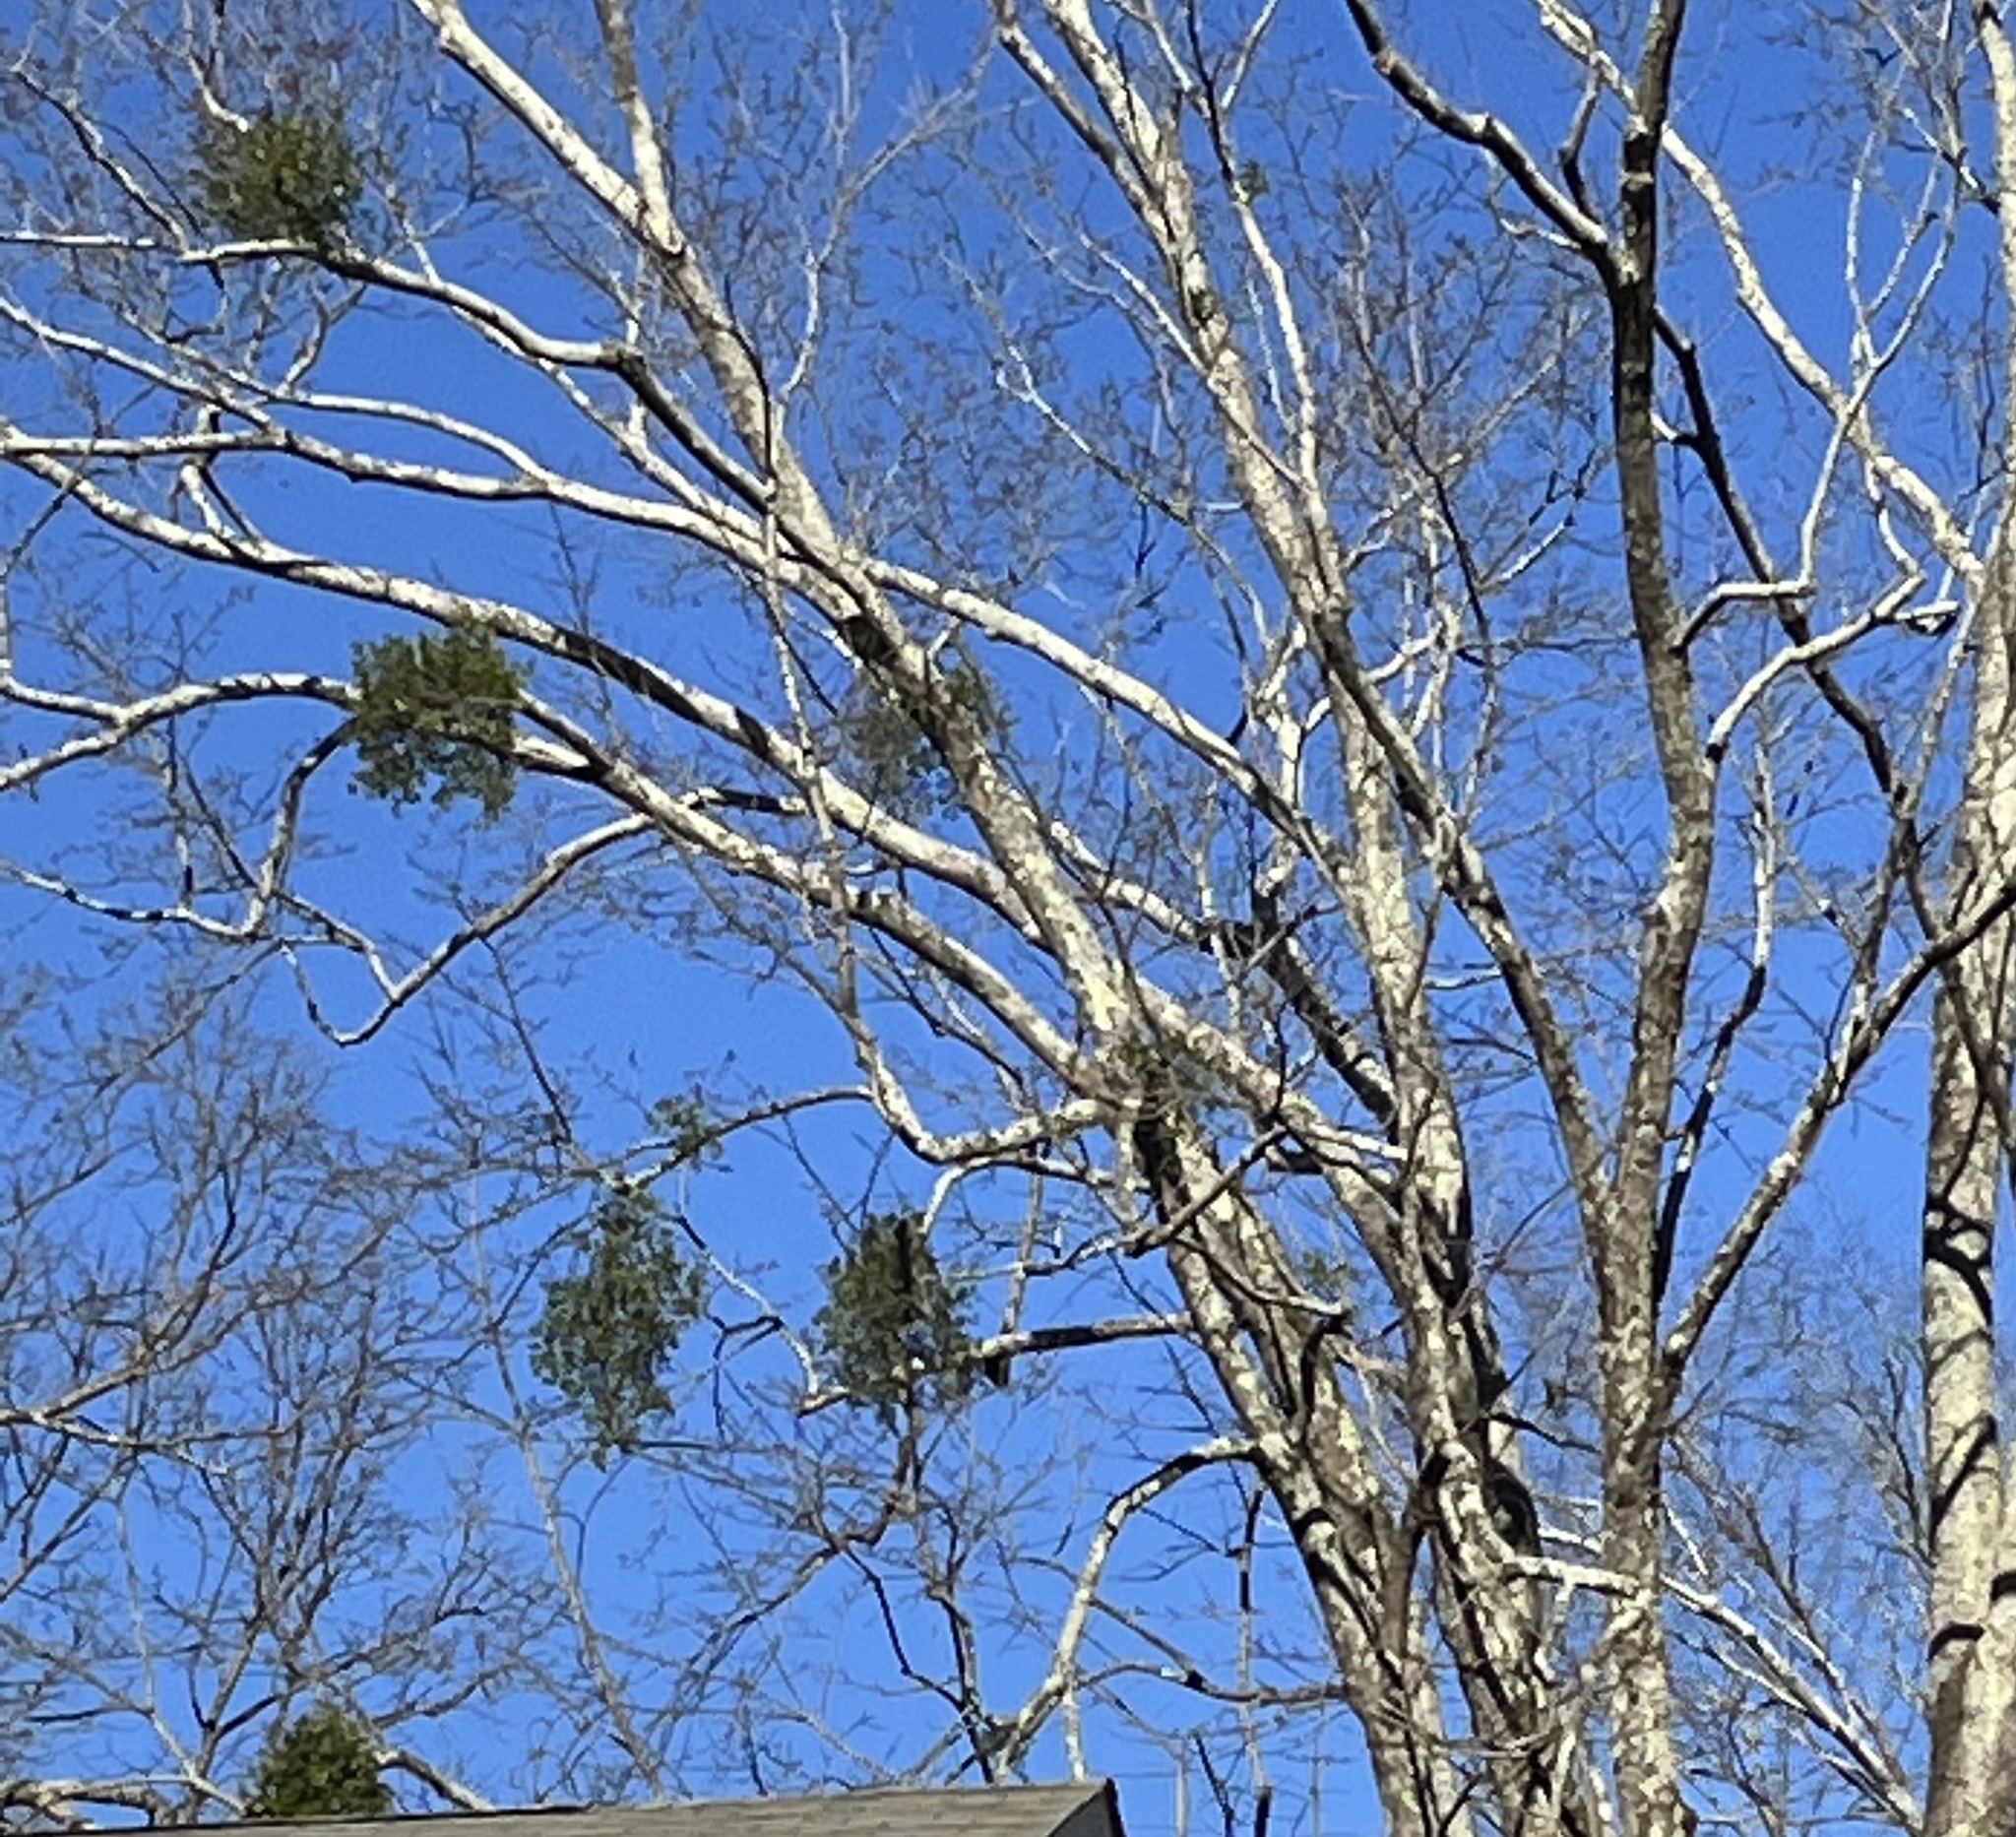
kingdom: Plantae
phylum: Tracheophyta
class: Magnoliopsida
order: Santalales
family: Viscaceae
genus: Phoradendron
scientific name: Phoradendron leucarpum
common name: Pacific mistletoe
